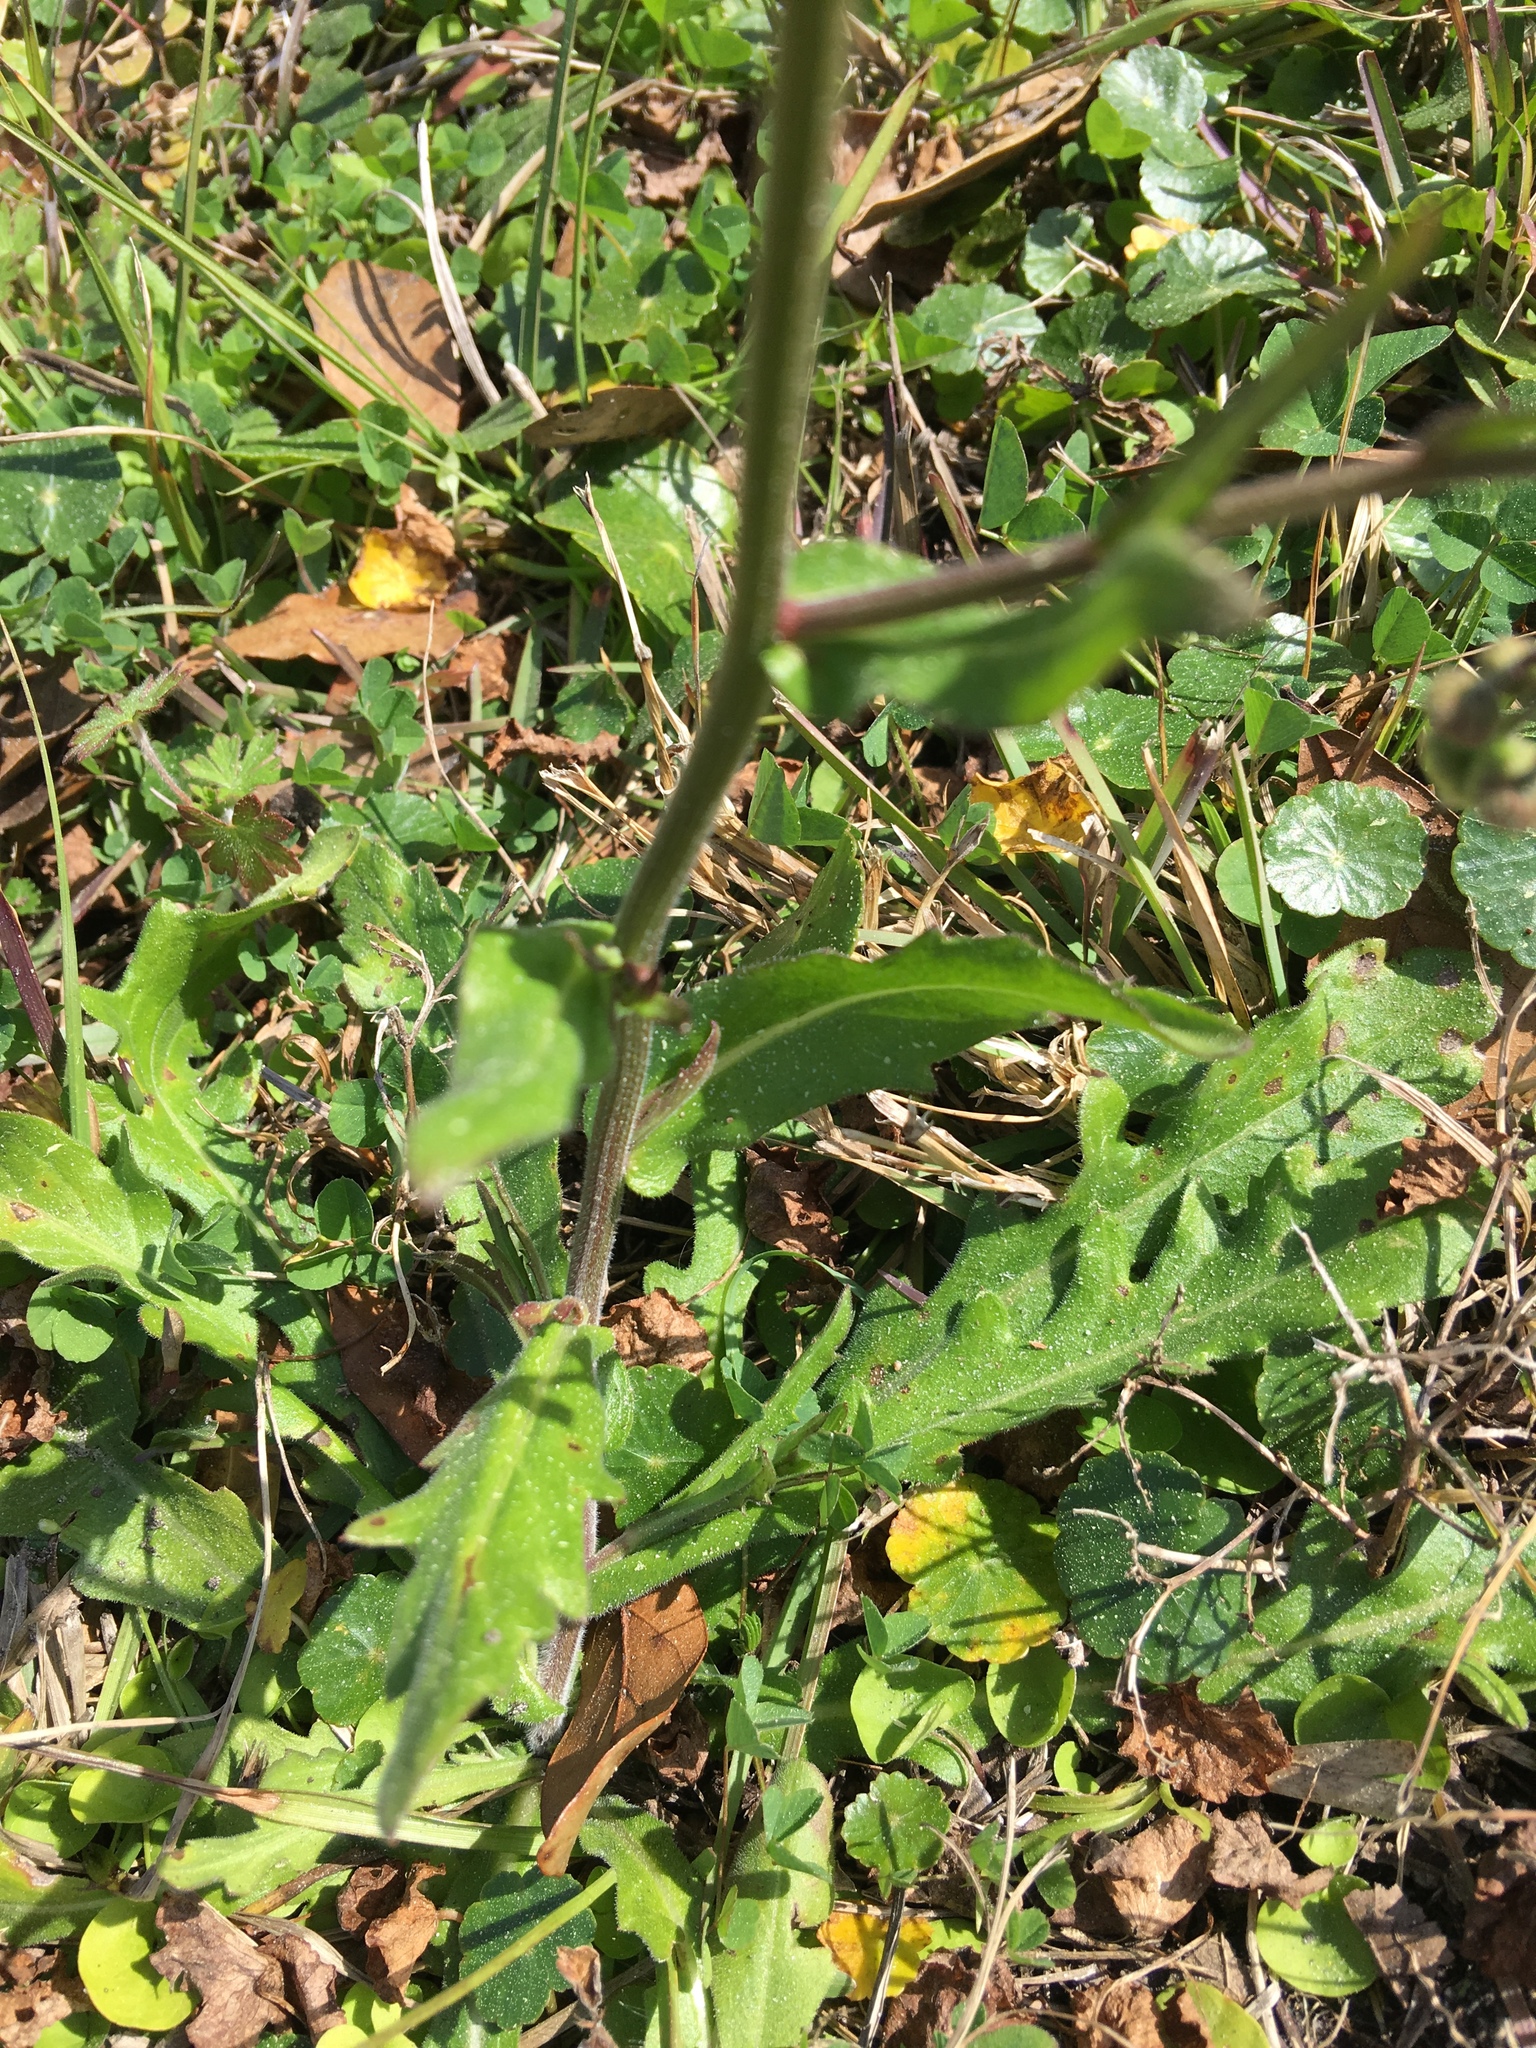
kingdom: Plantae
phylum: Tracheophyta
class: Magnoliopsida
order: Asterales
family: Asteraceae
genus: Erigeron
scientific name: Erigeron quercifolius
